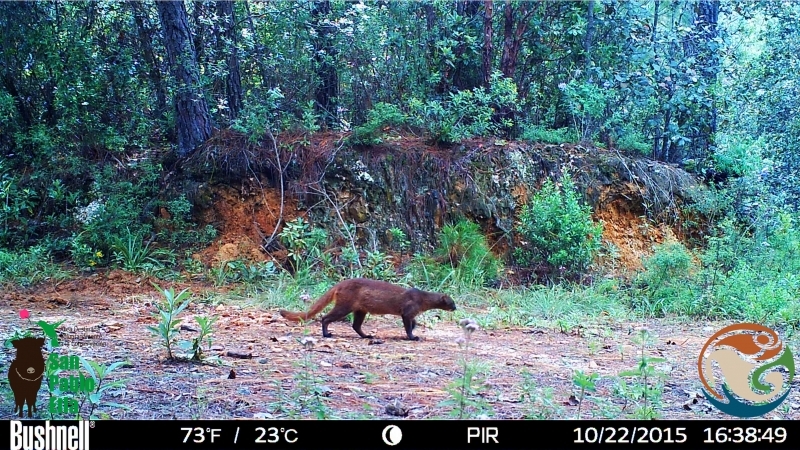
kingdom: Animalia
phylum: Chordata
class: Mammalia
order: Carnivora
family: Felidae
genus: Puma
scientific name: Puma yagouaroundi
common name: Jaguarundi
